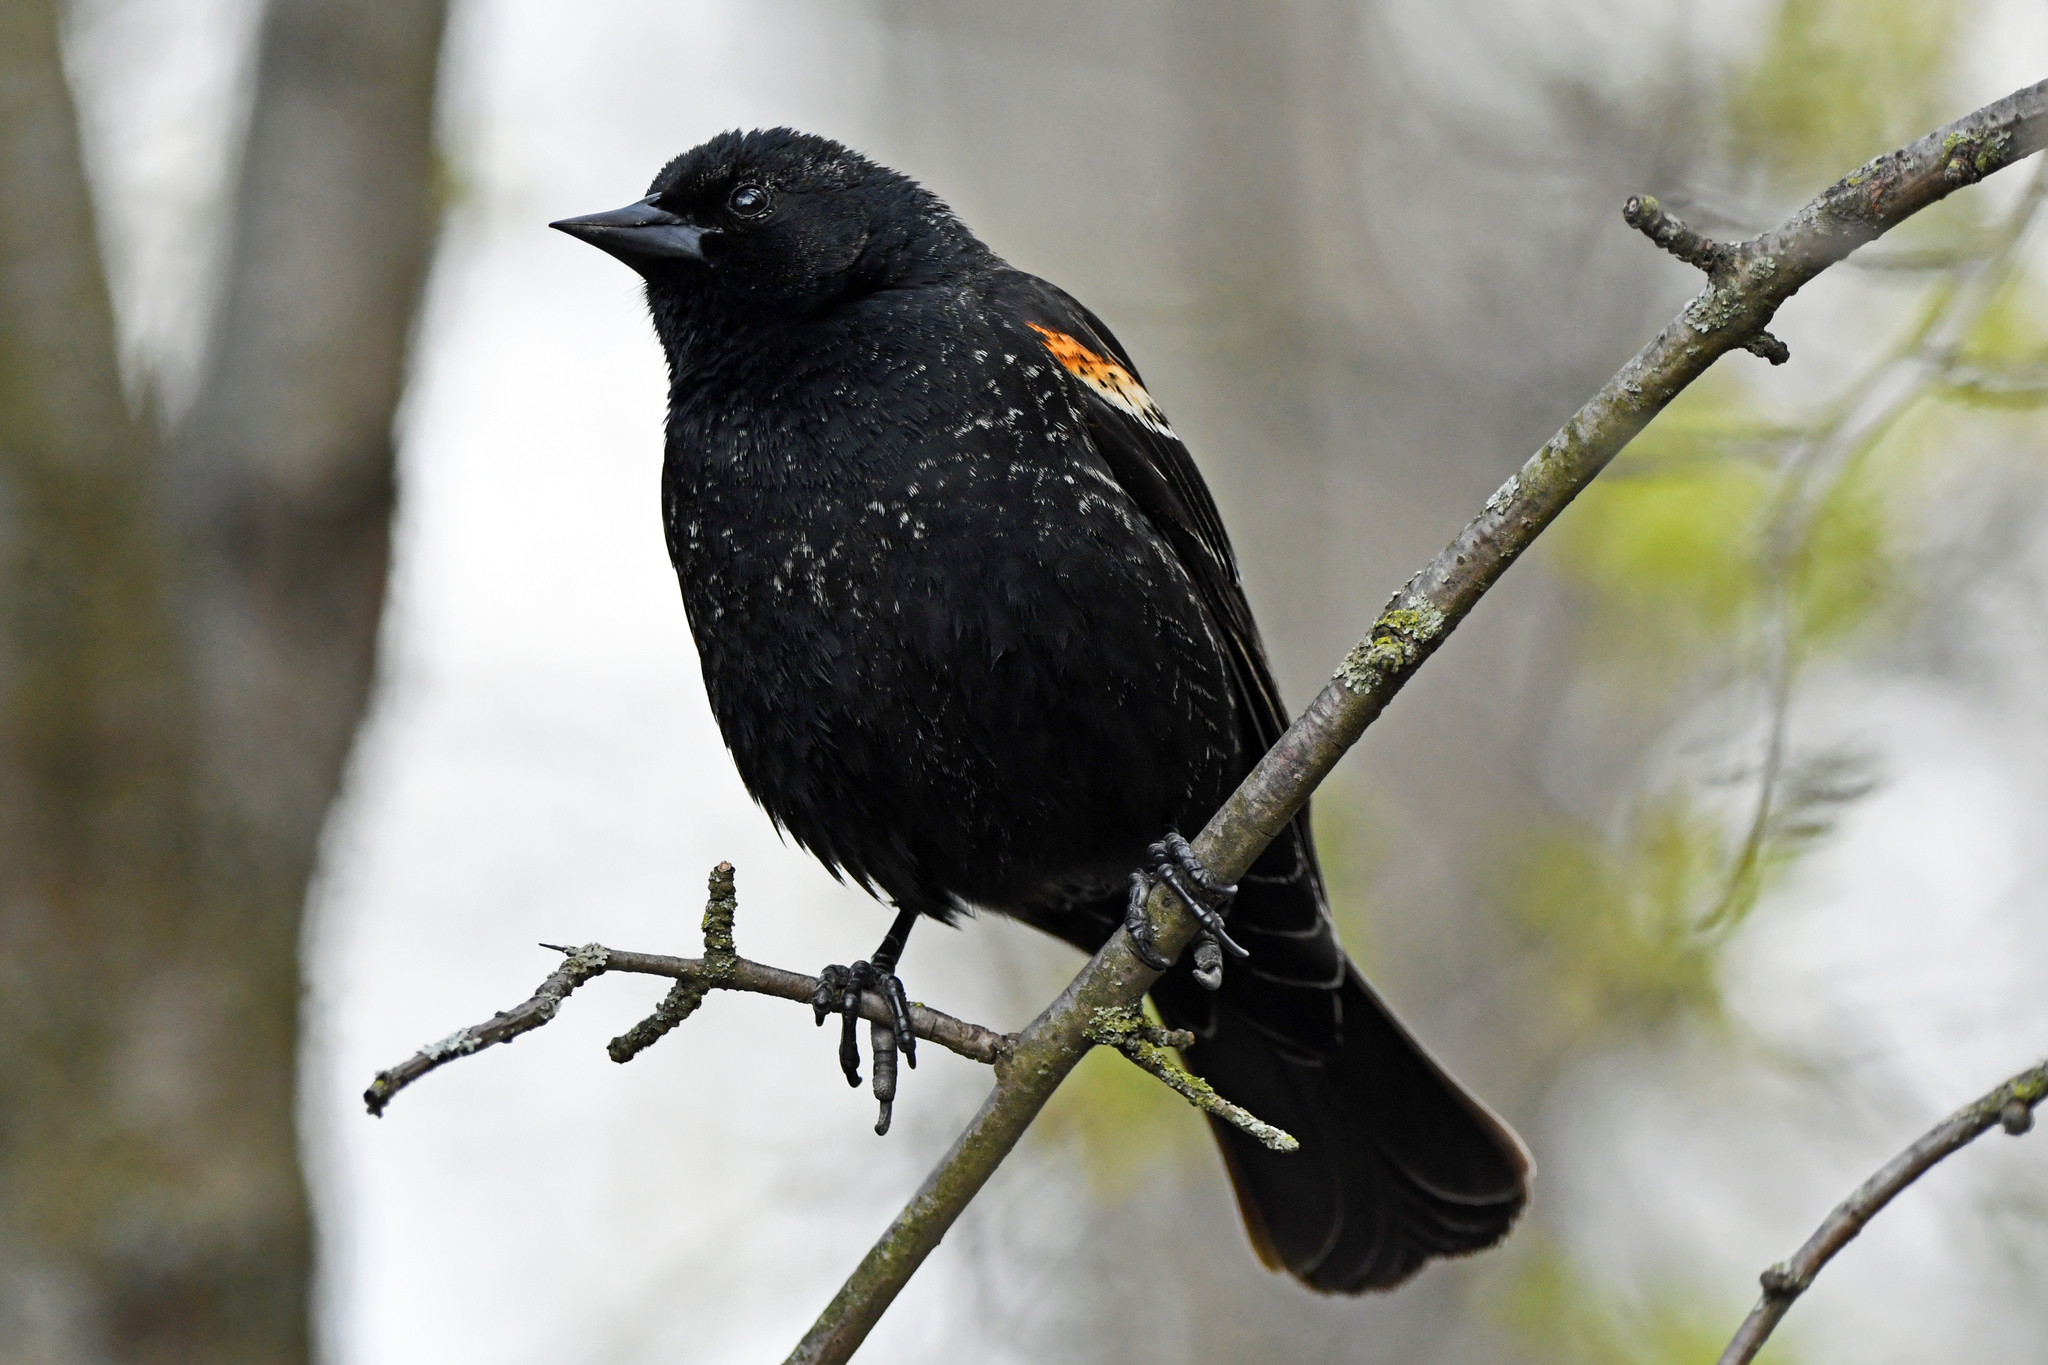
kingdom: Animalia
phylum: Chordata
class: Aves
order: Passeriformes
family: Icteridae
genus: Agelaius
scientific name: Agelaius phoeniceus
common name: Red-winged blackbird
